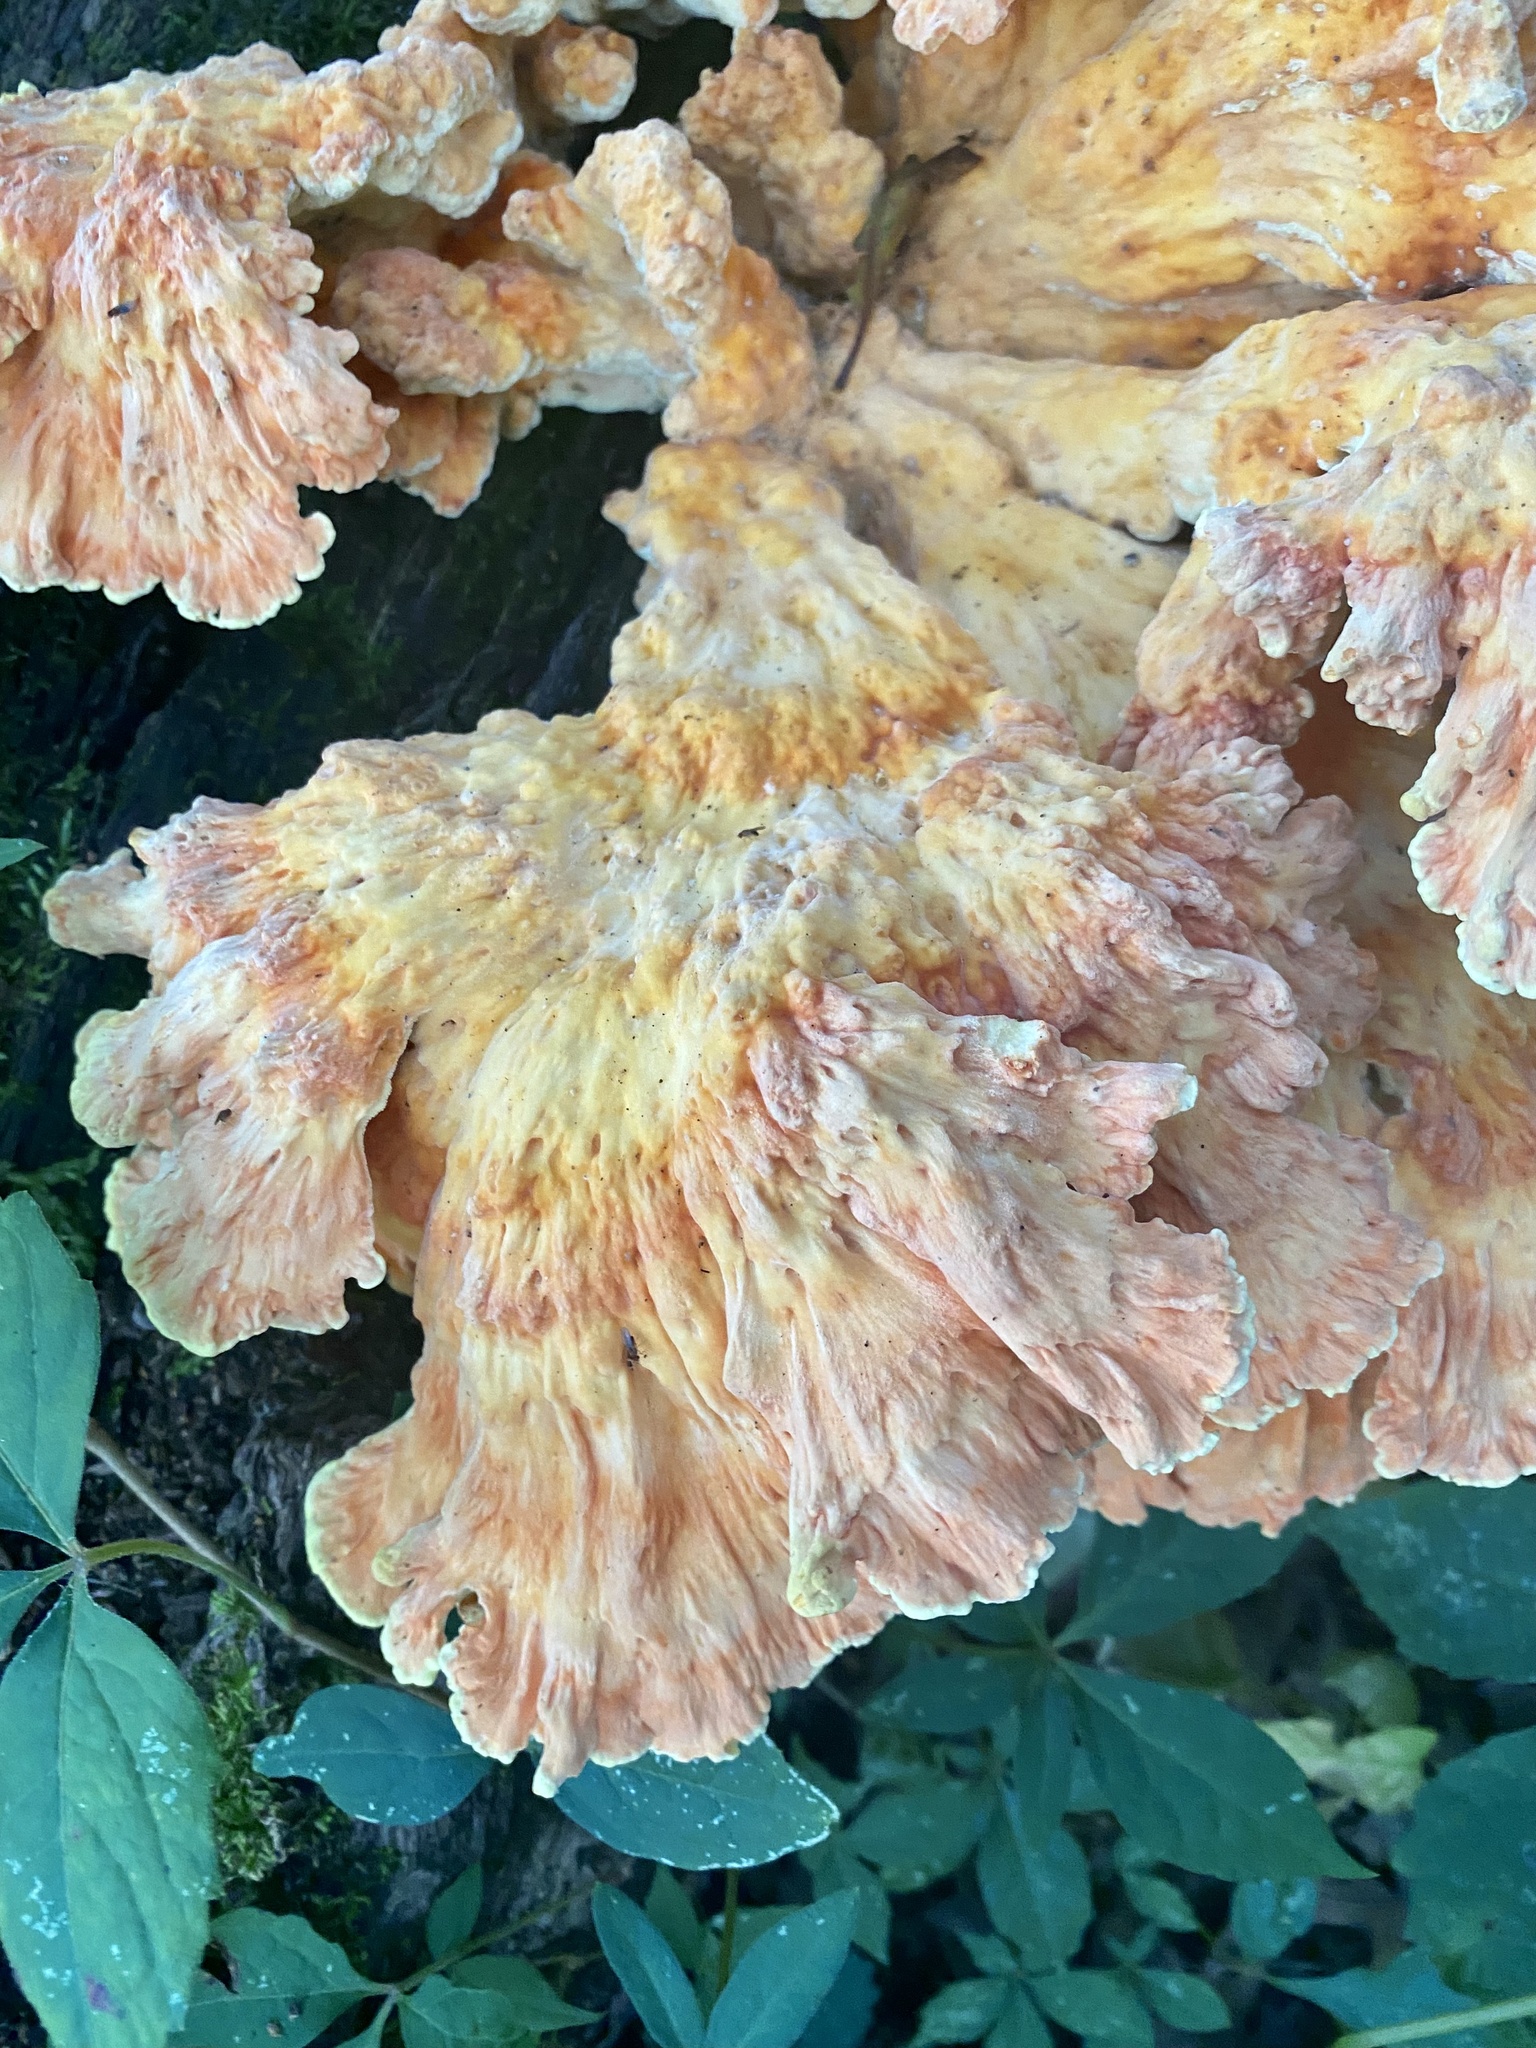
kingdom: Fungi
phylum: Basidiomycota
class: Agaricomycetes
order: Polyporales
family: Laetiporaceae
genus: Laetiporus
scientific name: Laetiporus sulphureus
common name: Chicken of the woods
